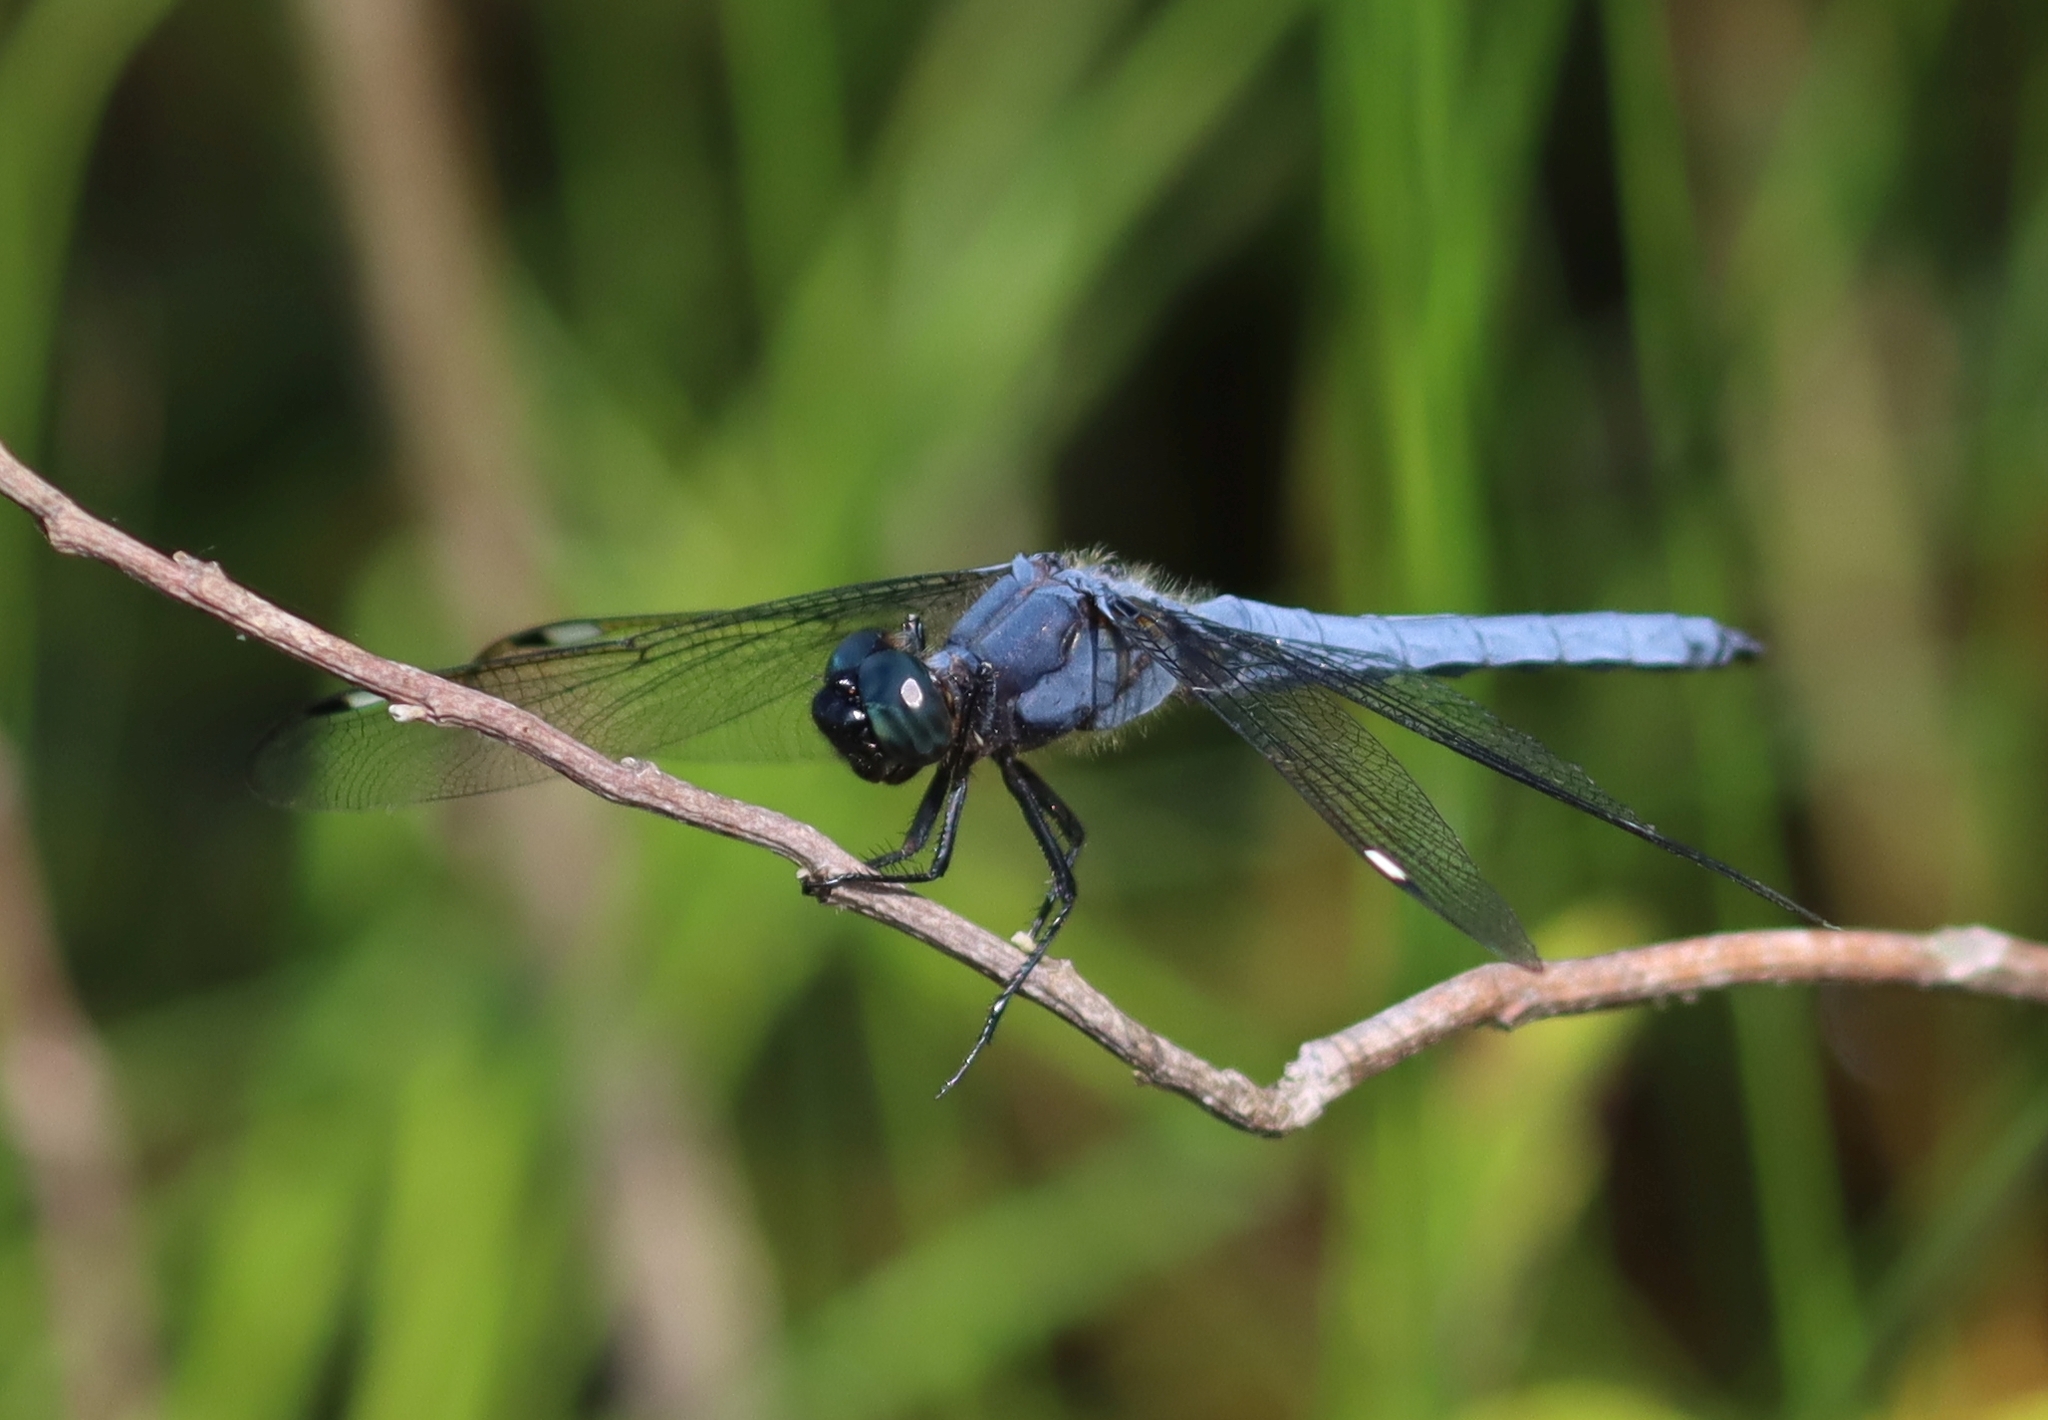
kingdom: Animalia
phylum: Arthropoda
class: Insecta
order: Odonata
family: Libellulidae
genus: Libellula
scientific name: Libellula cyanea
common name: Spangled skimmer
